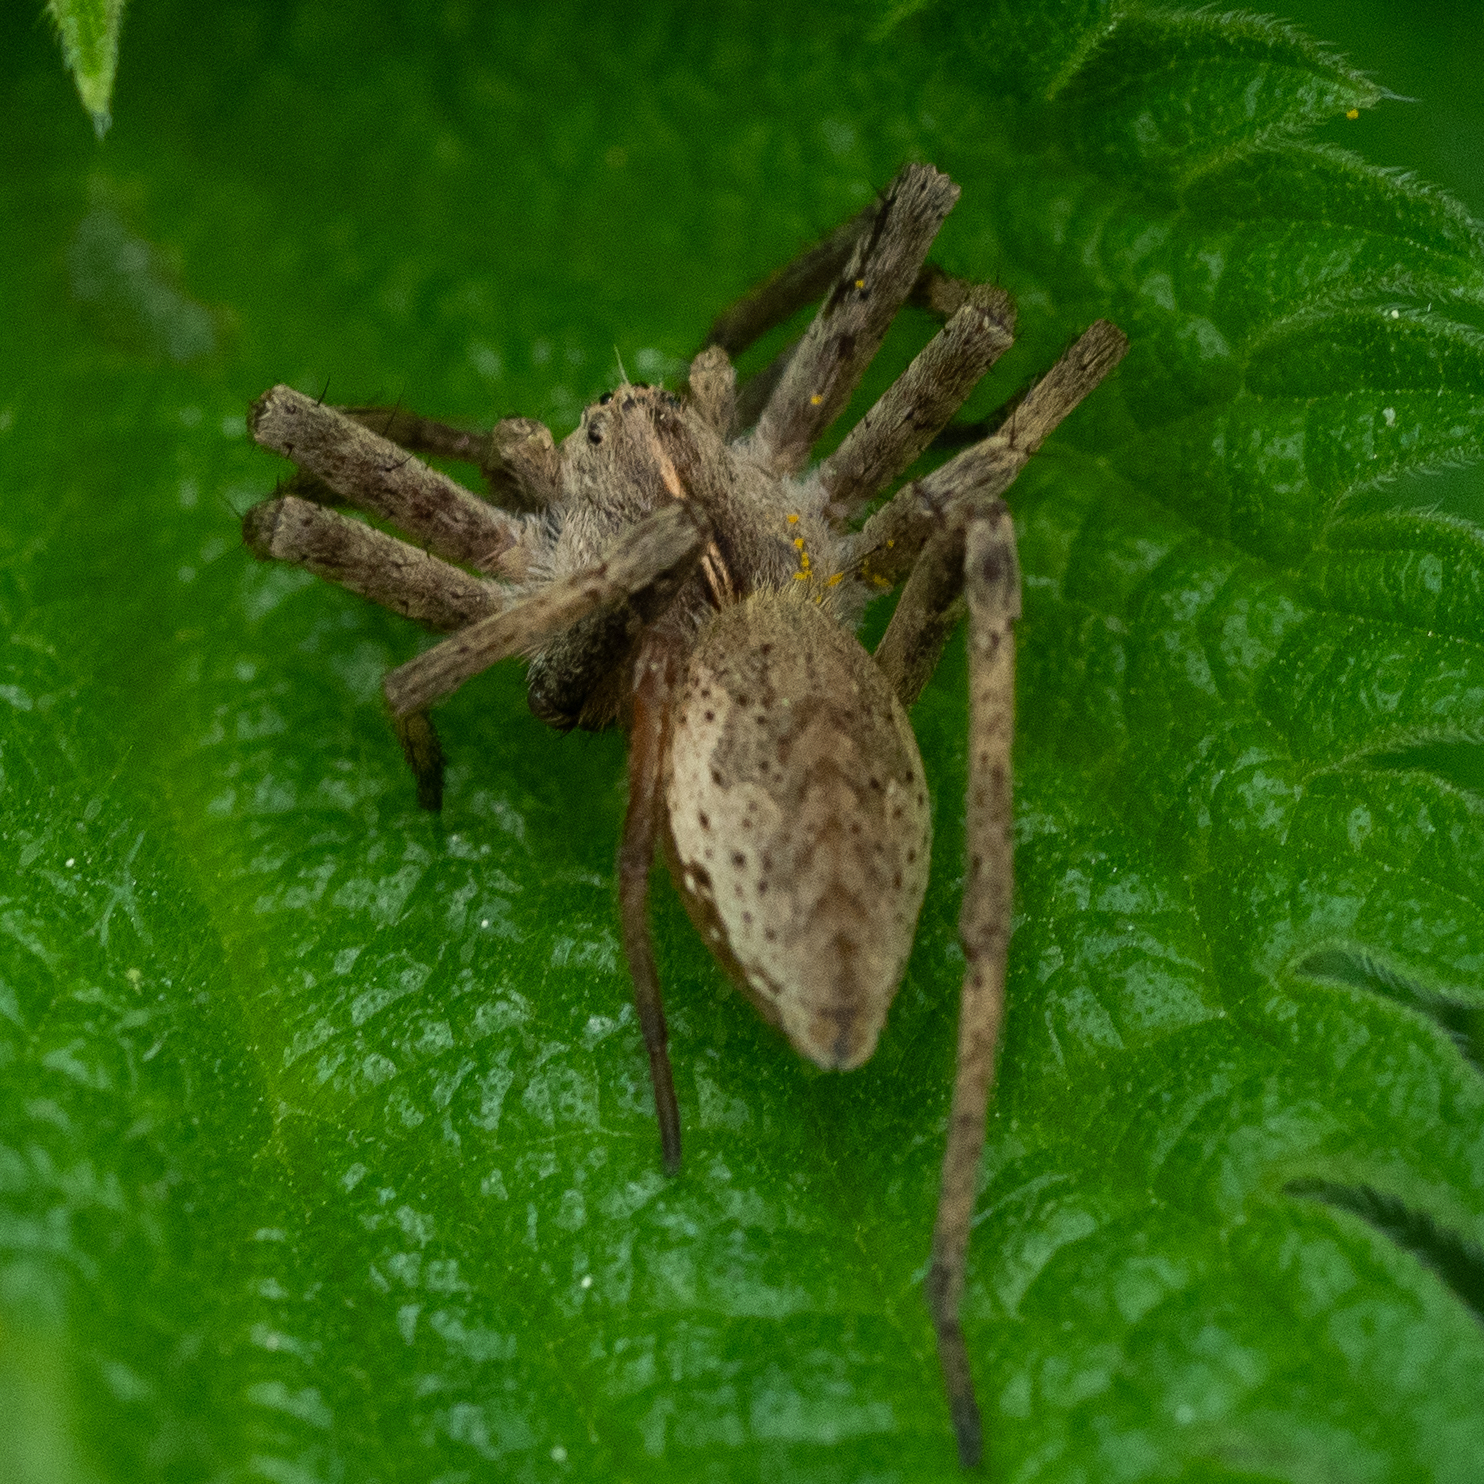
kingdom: Animalia
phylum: Arthropoda
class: Arachnida
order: Araneae
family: Pisauridae
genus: Pisaura
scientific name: Pisaura mirabilis
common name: Tent spider
